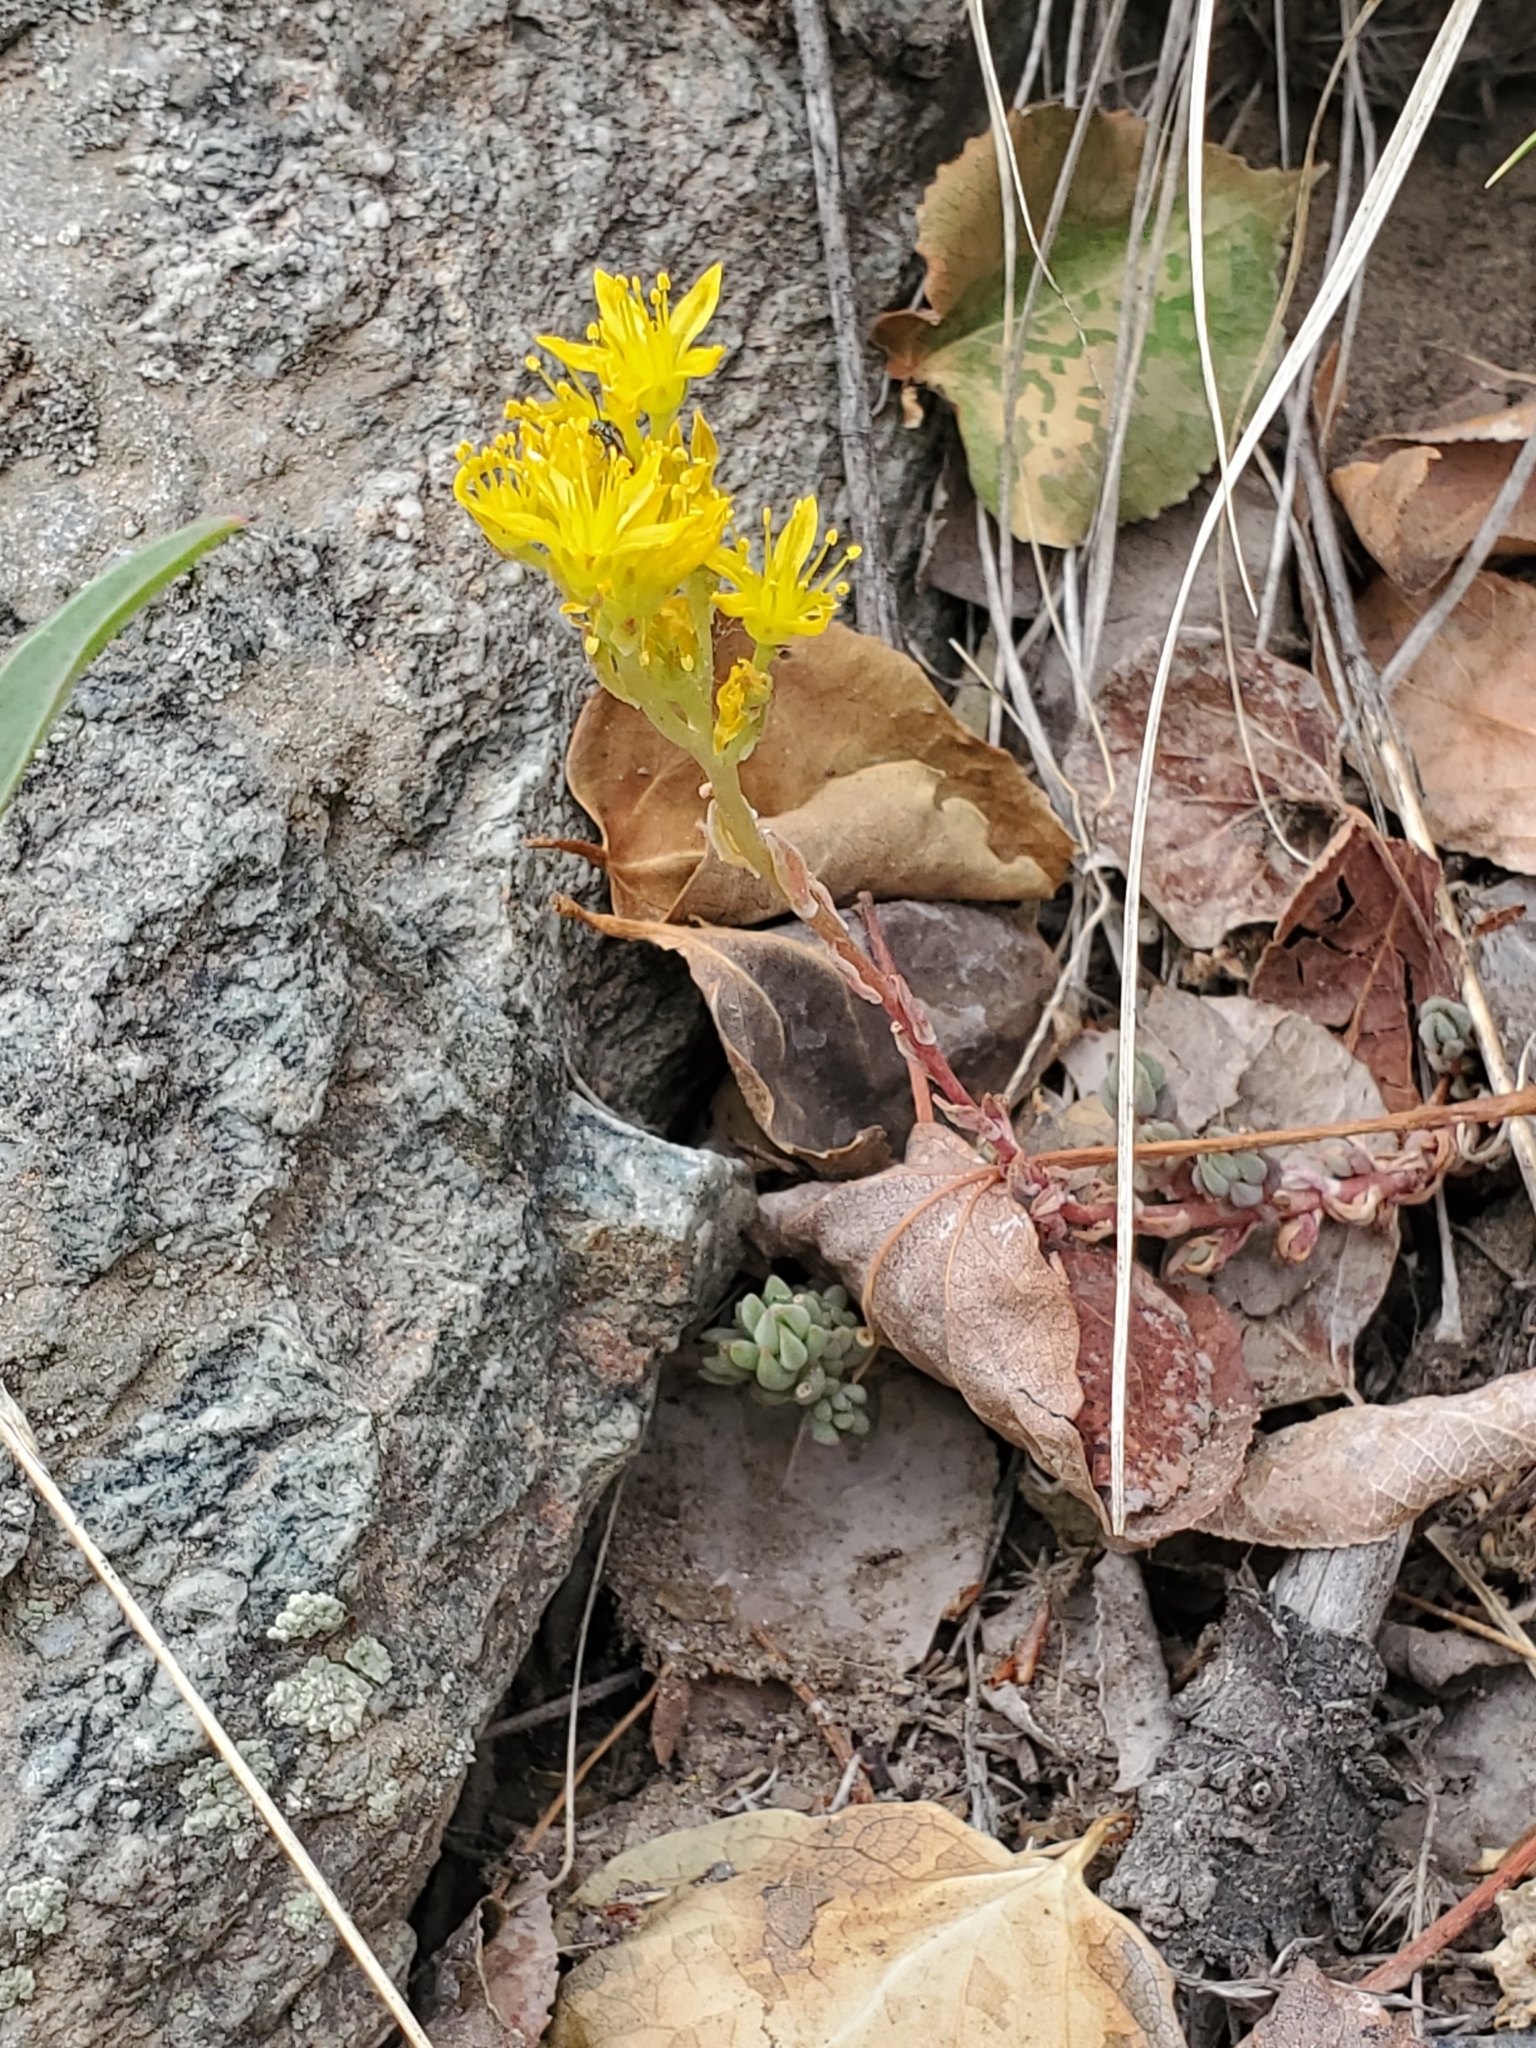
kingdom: Plantae
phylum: Tracheophyta
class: Magnoliopsida
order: Saxifragales
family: Crassulaceae
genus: Sedum
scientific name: Sedum lanceolatum
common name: Common stonecrop
